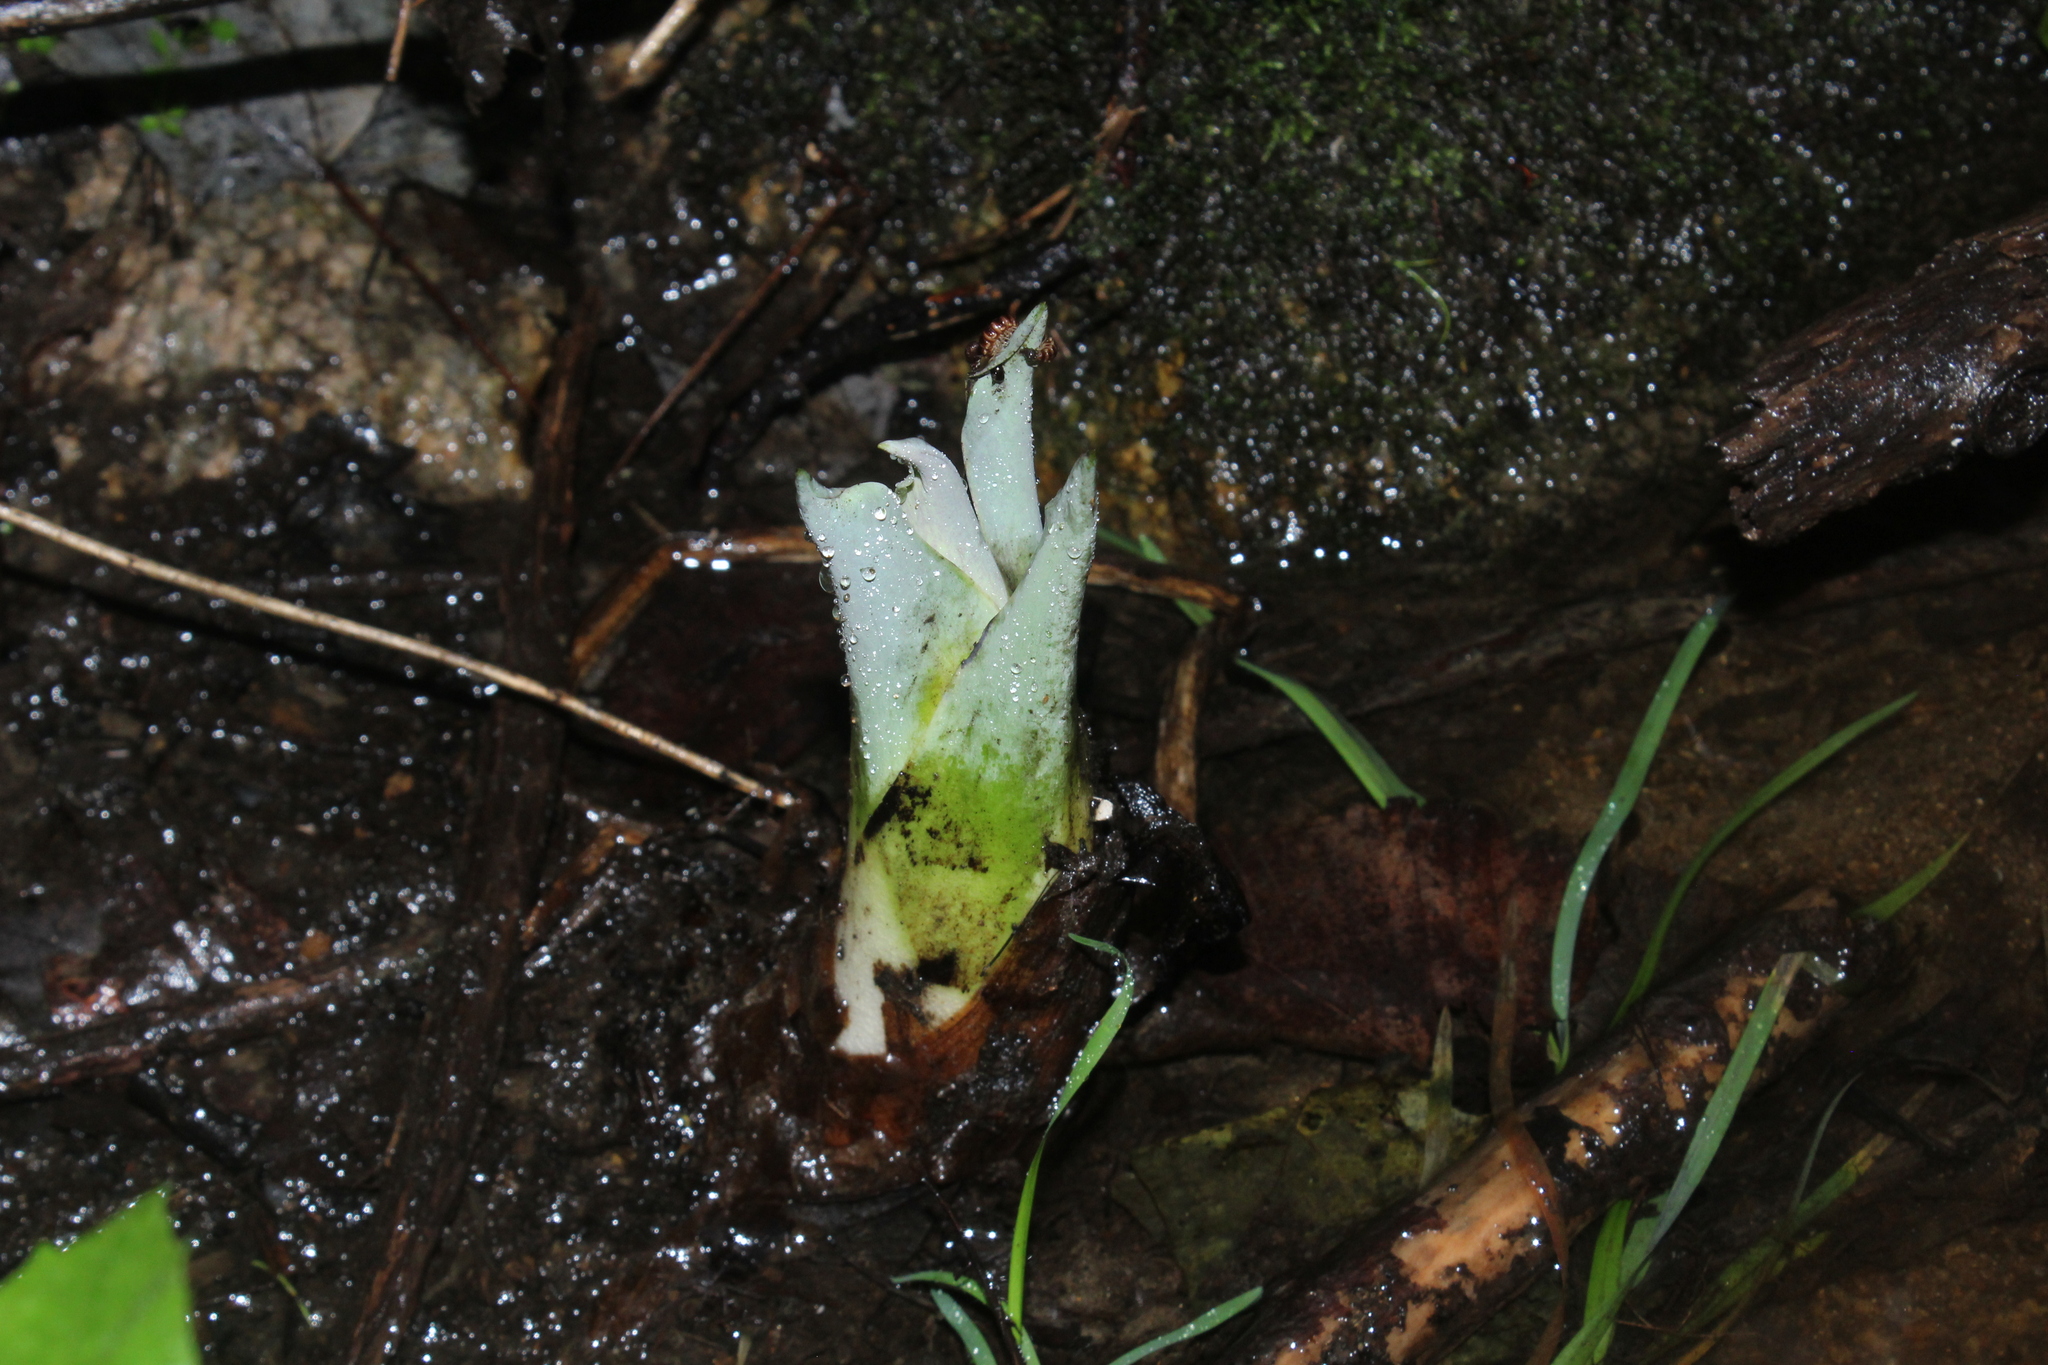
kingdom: Plantae
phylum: Tracheophyta
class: Liliopsida
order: Alismatales
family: Araceae
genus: Symplocarpus
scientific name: Symplocarpus foetidus
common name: Eastern skunk cabbage
